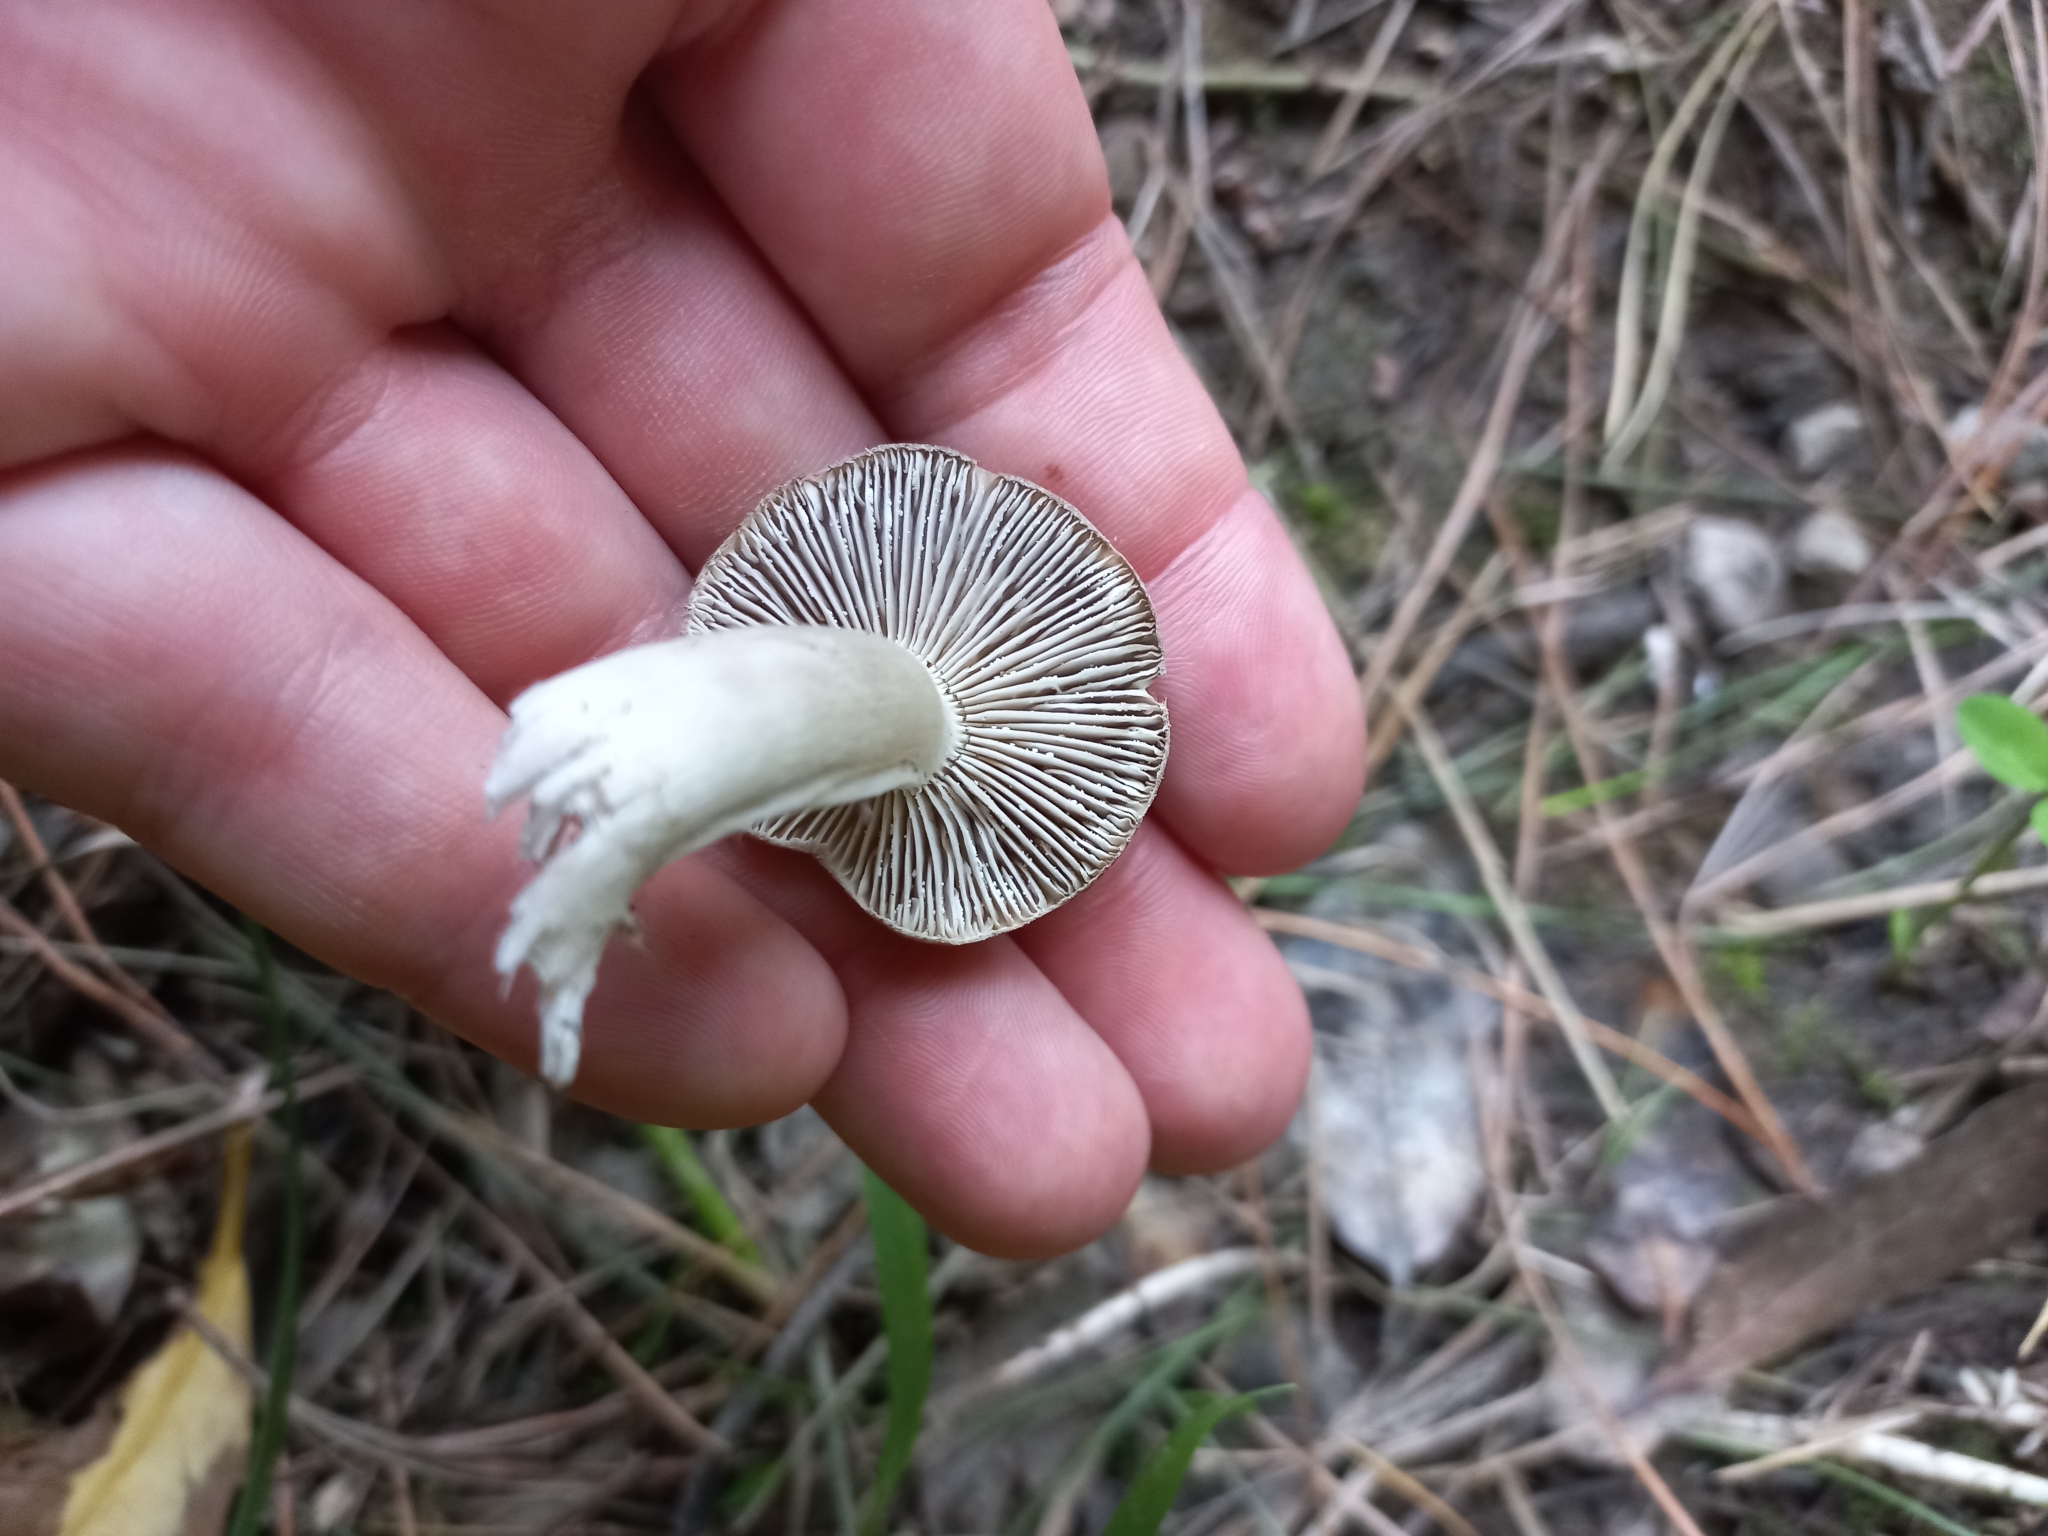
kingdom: Fungi
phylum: Basidiomycota
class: Agaricomycetes
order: Agaricales
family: Tricholomataceae
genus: Tricholoma
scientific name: Tricholoma terreum
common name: Grey knight
